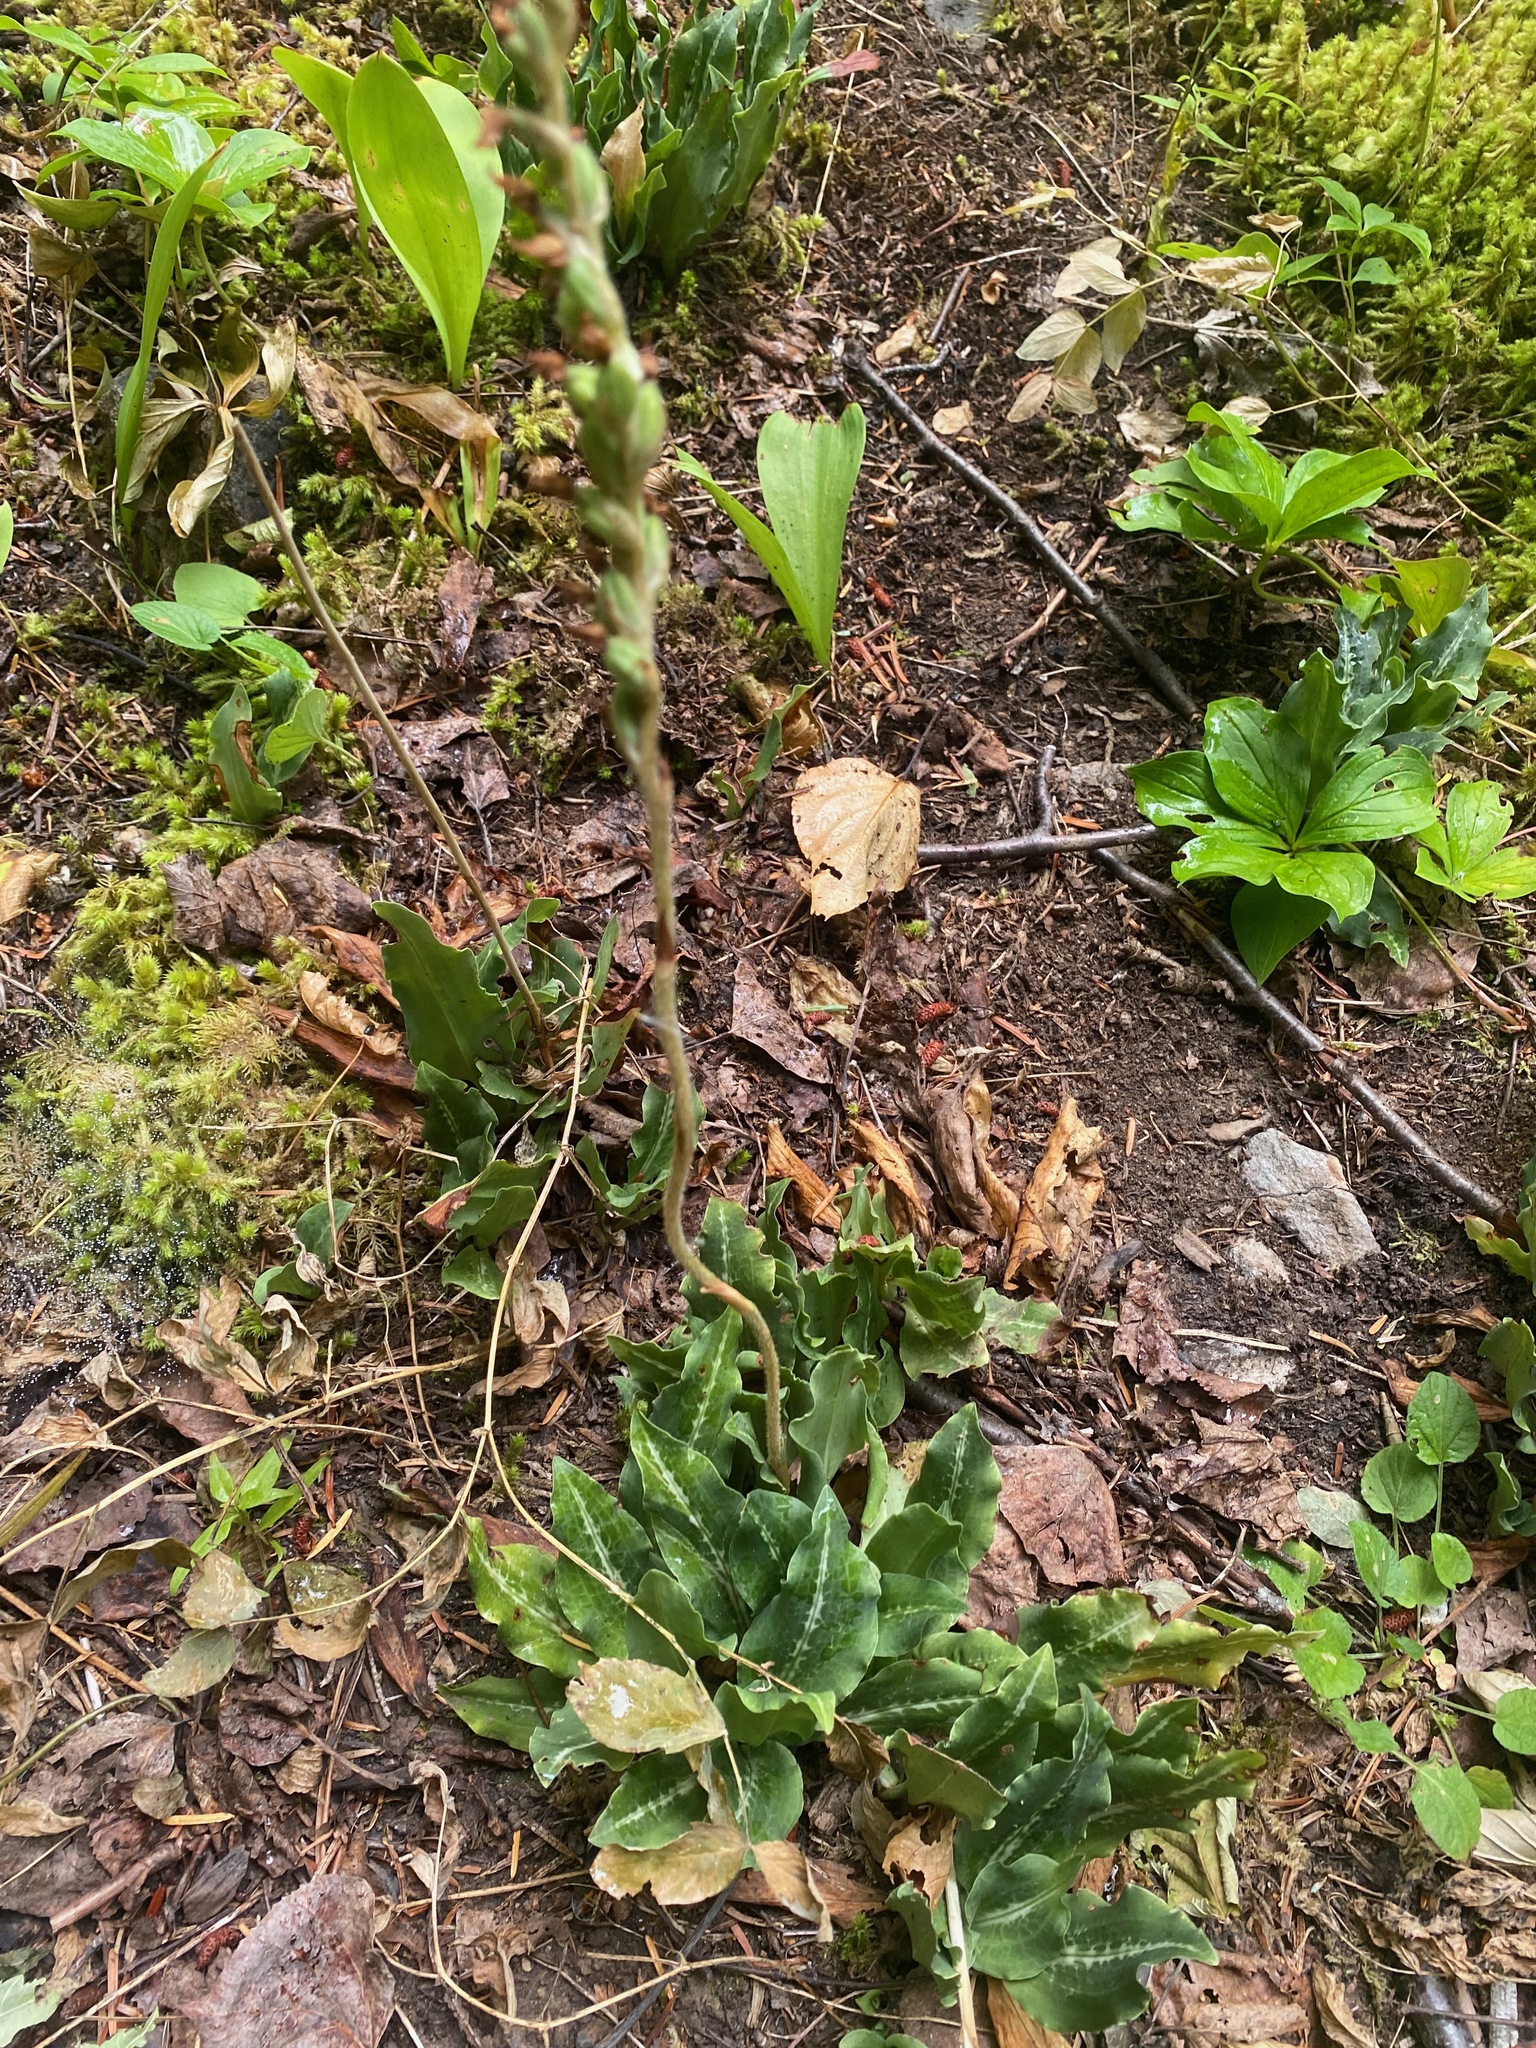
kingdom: Plantae
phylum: Tracheophyta
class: Liliopsida
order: Asparagales
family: Orchidaceae
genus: Goodyera
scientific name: Goodyera oblongifolia
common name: Giant rattlesnake-plantain
